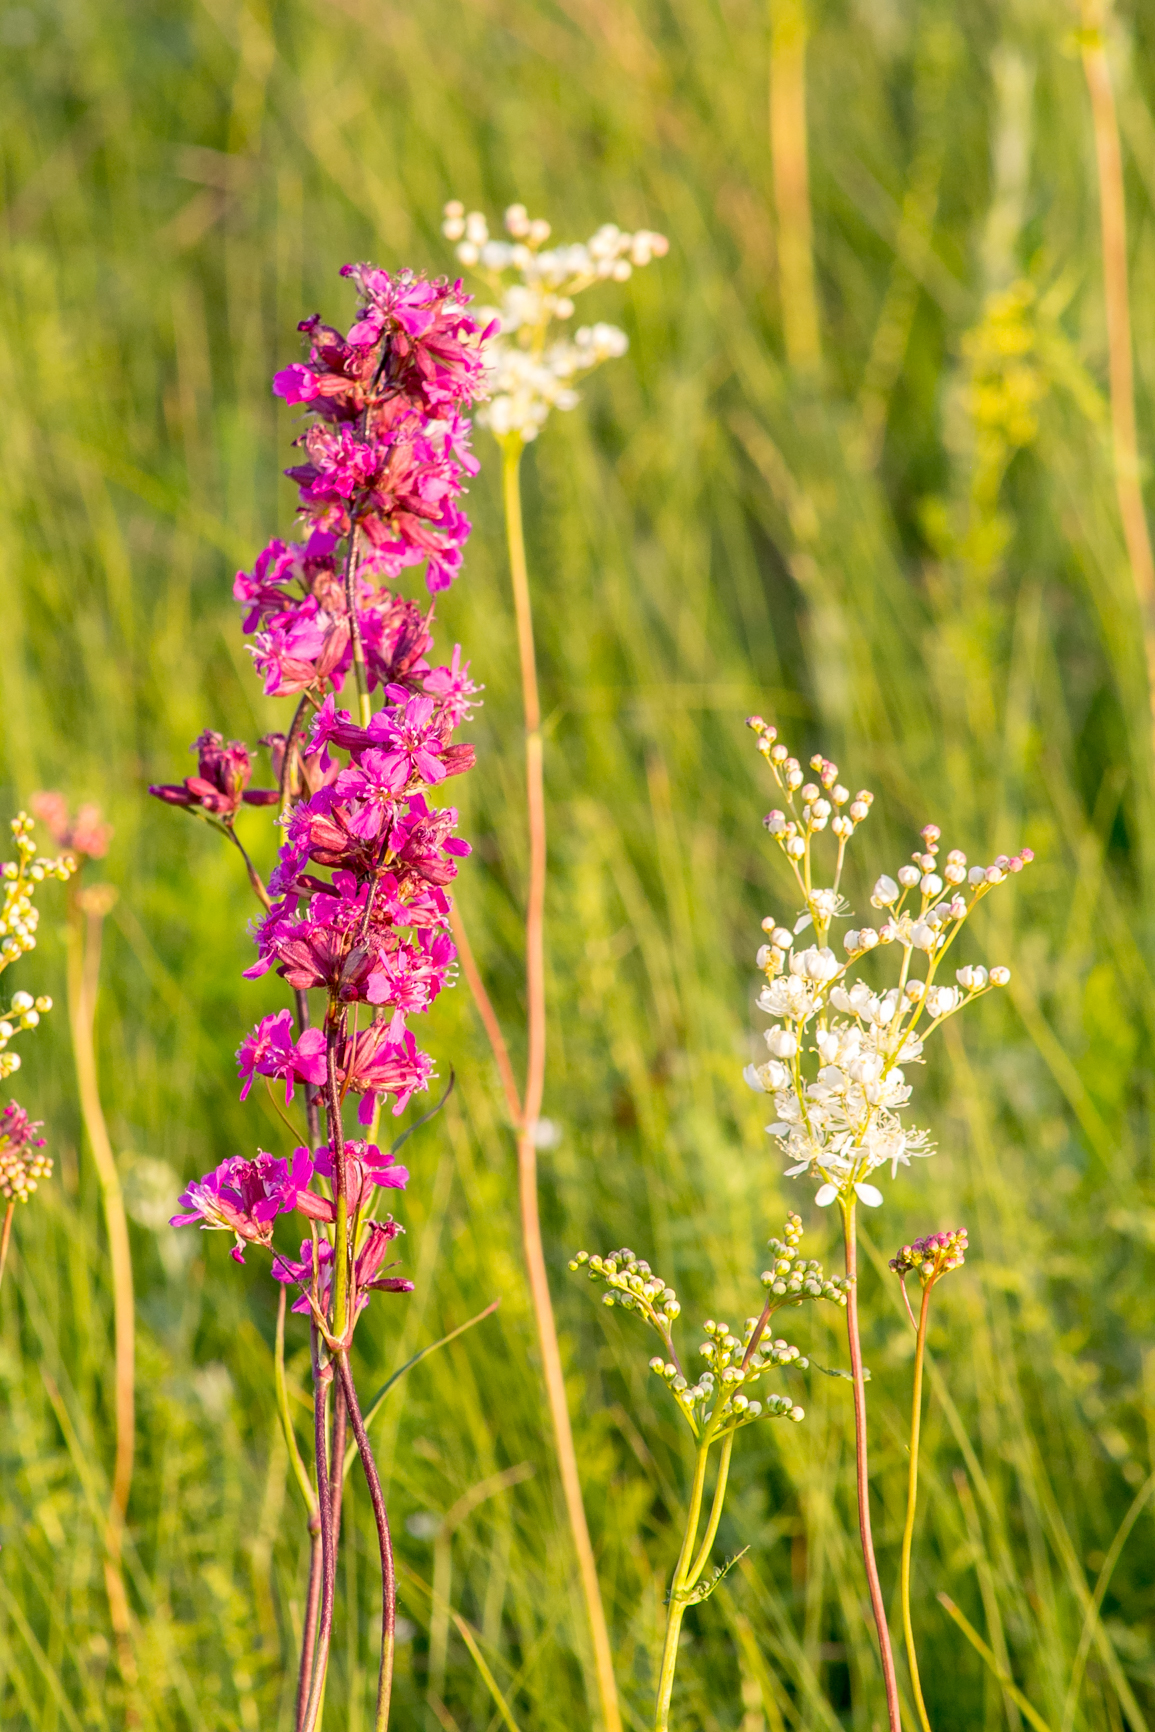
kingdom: Plantae
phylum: Tracheophyta
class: Magnoliopsida
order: Caryophyllales
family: Caryophyllaceae
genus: Viscaria
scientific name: Viscaria vulgaris
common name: Clammy campion
